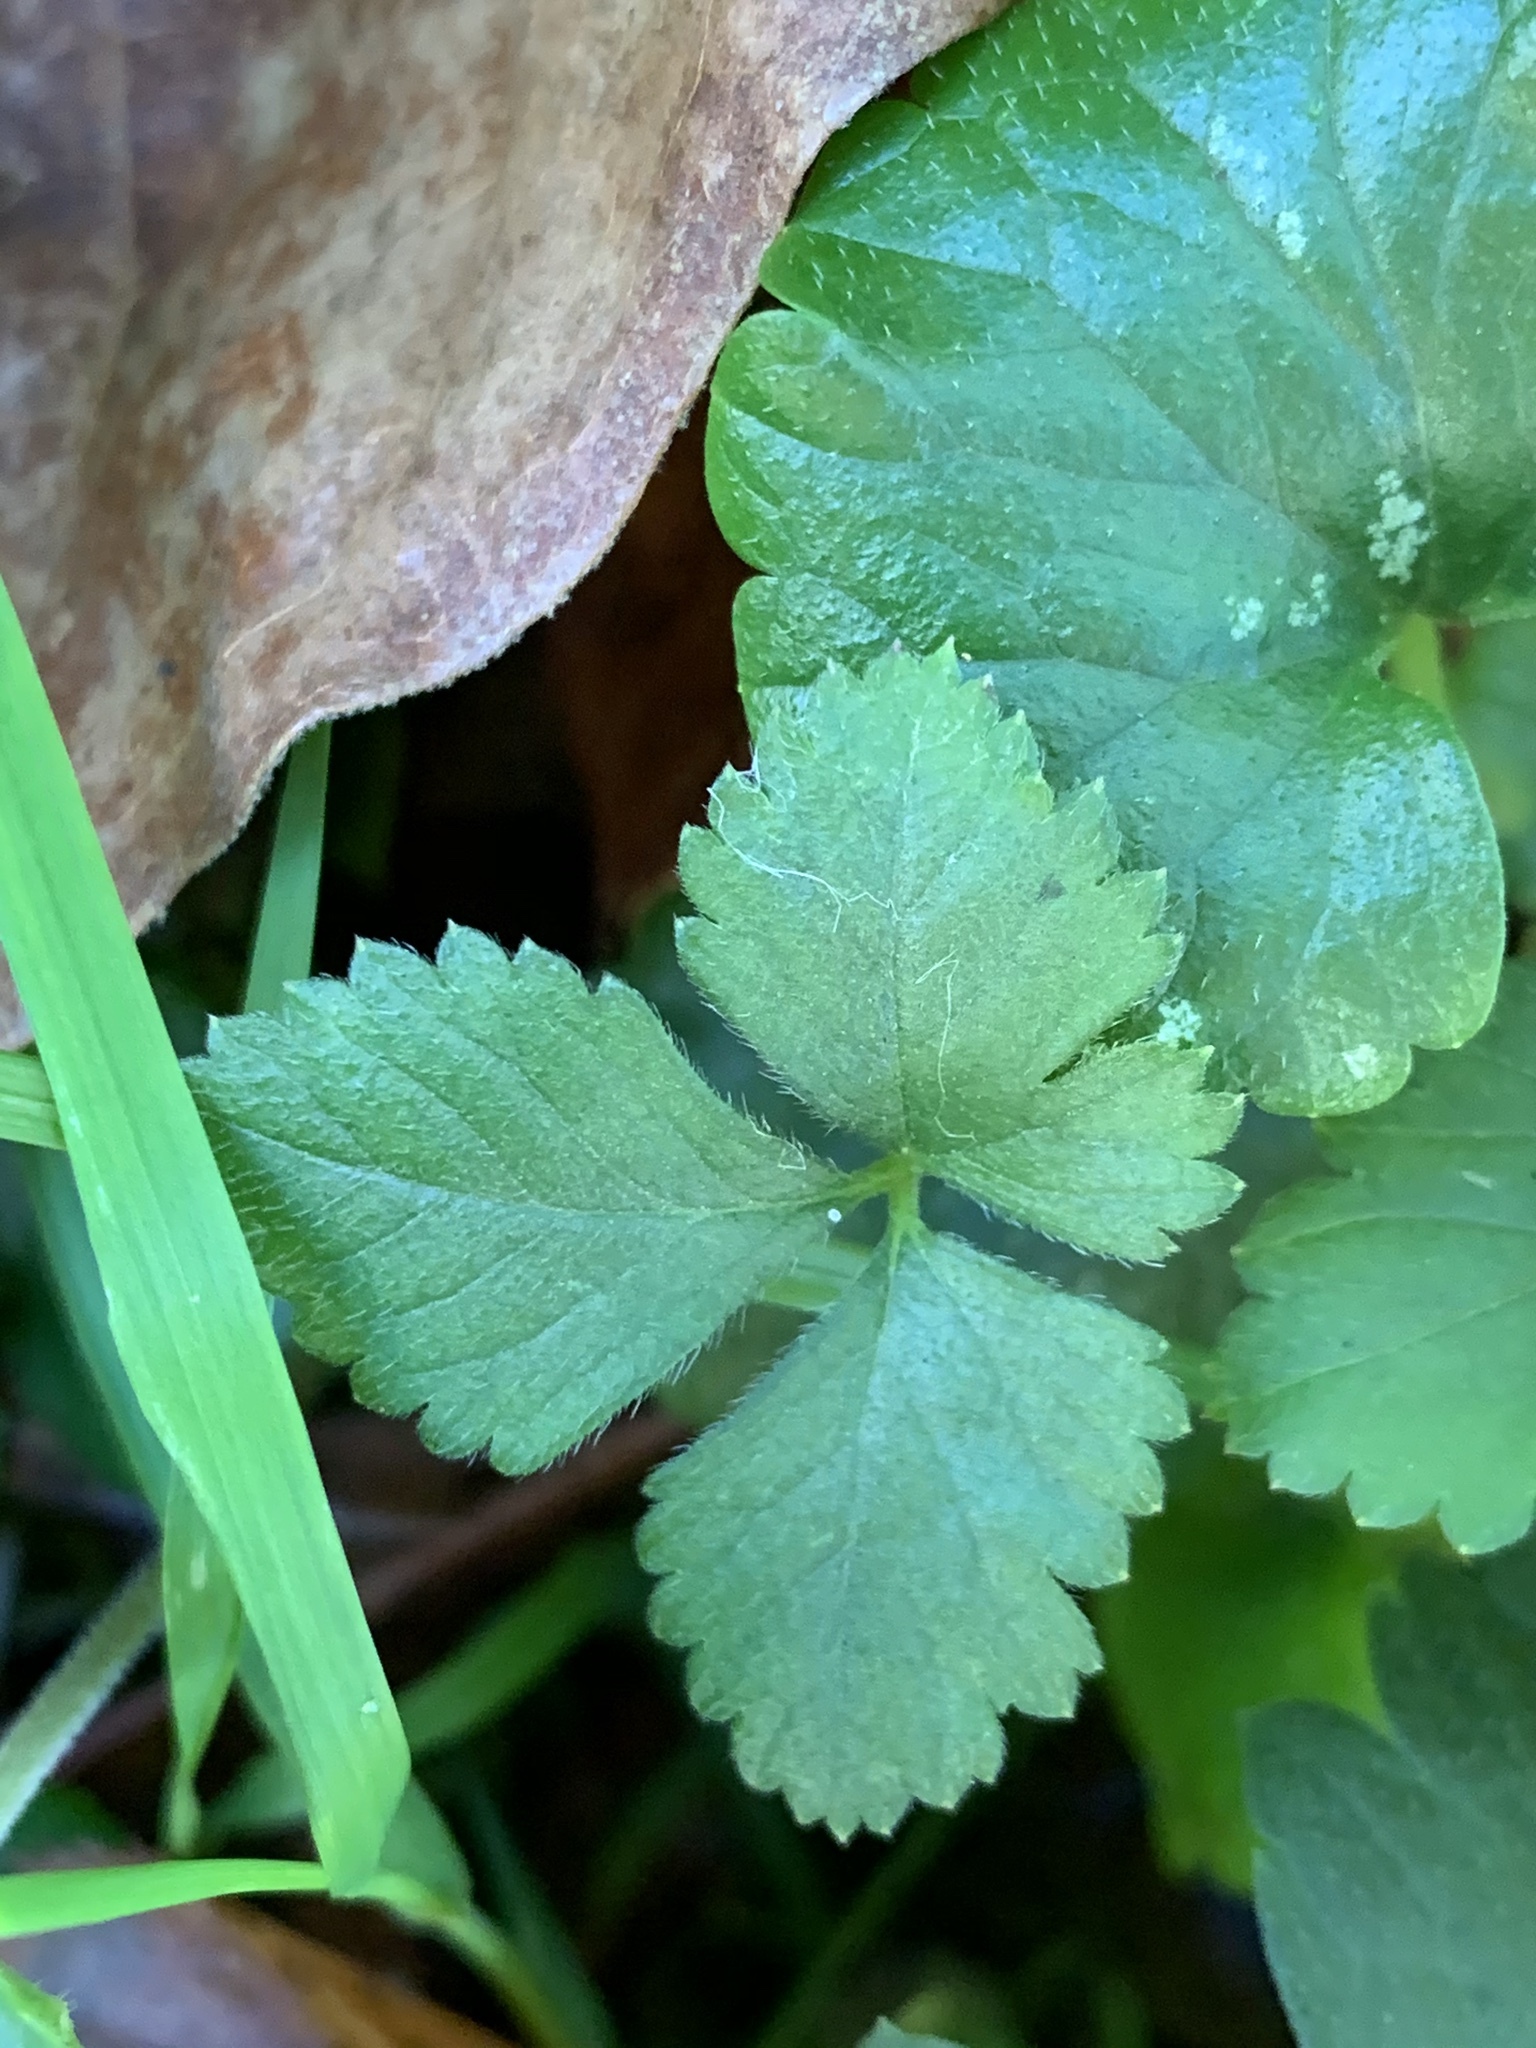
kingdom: Plantae
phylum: Tracheophyta
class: Magnoliopsida
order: Rosales
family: Rosaceae
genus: Potentilla
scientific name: Potentilla indica
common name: Yellow-flowered strawberry
